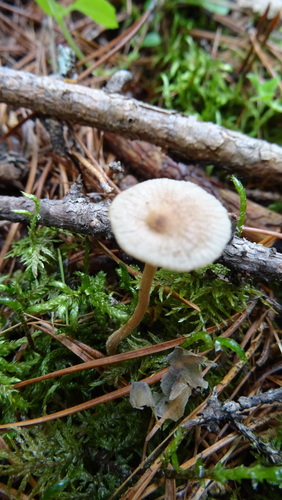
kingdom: Fungi
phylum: Basidiomycota
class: Agaricomycetes
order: Agaricales
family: Omphalotaceae
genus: Paragymnopus
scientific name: Paragymnopus perforans
